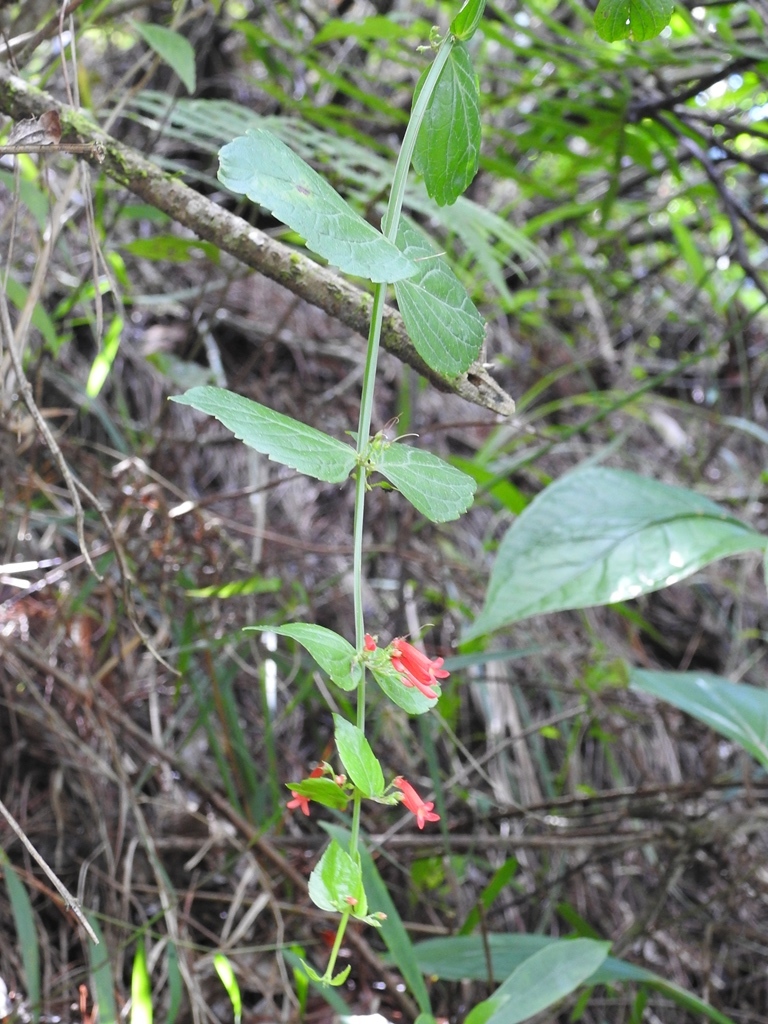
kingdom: Plantae
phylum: Tracheophyta
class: Magnoliopsida
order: Lamiales
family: Plantaginaceae
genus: Russelia
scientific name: Russelia sarmentosa
